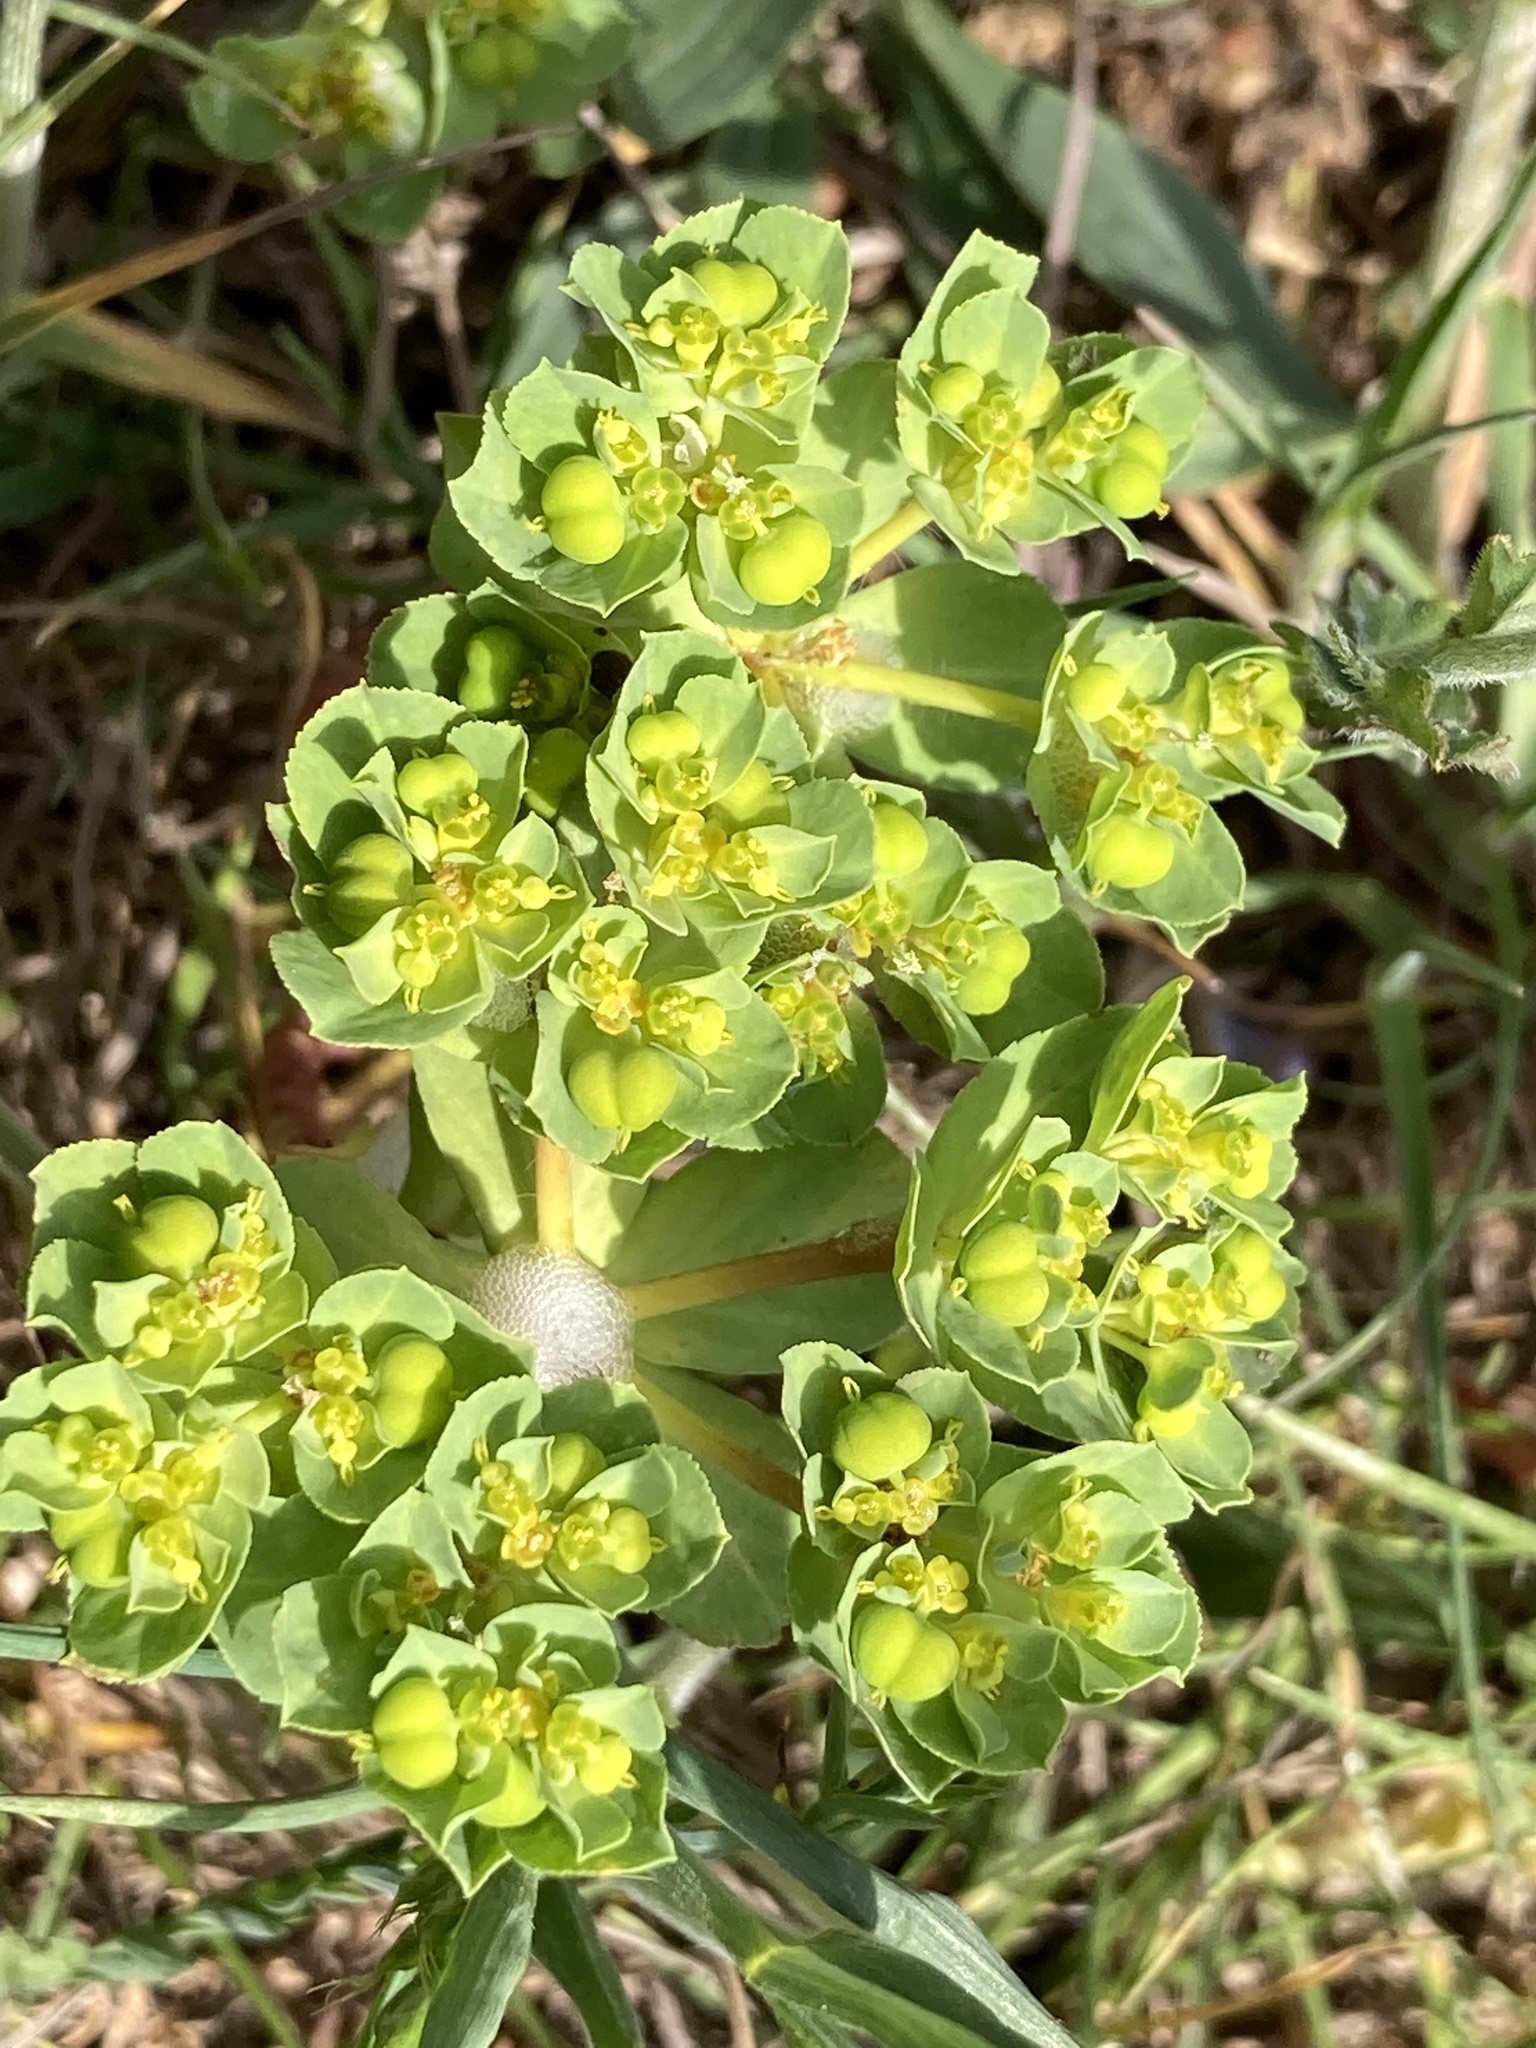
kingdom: Plantae
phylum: Tracheophyta
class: Magnoliopsida
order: Malpighiales
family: Euphorbiaceae
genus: Euphorbia
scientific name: Euphorbia helioscopia
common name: Sun spurge
